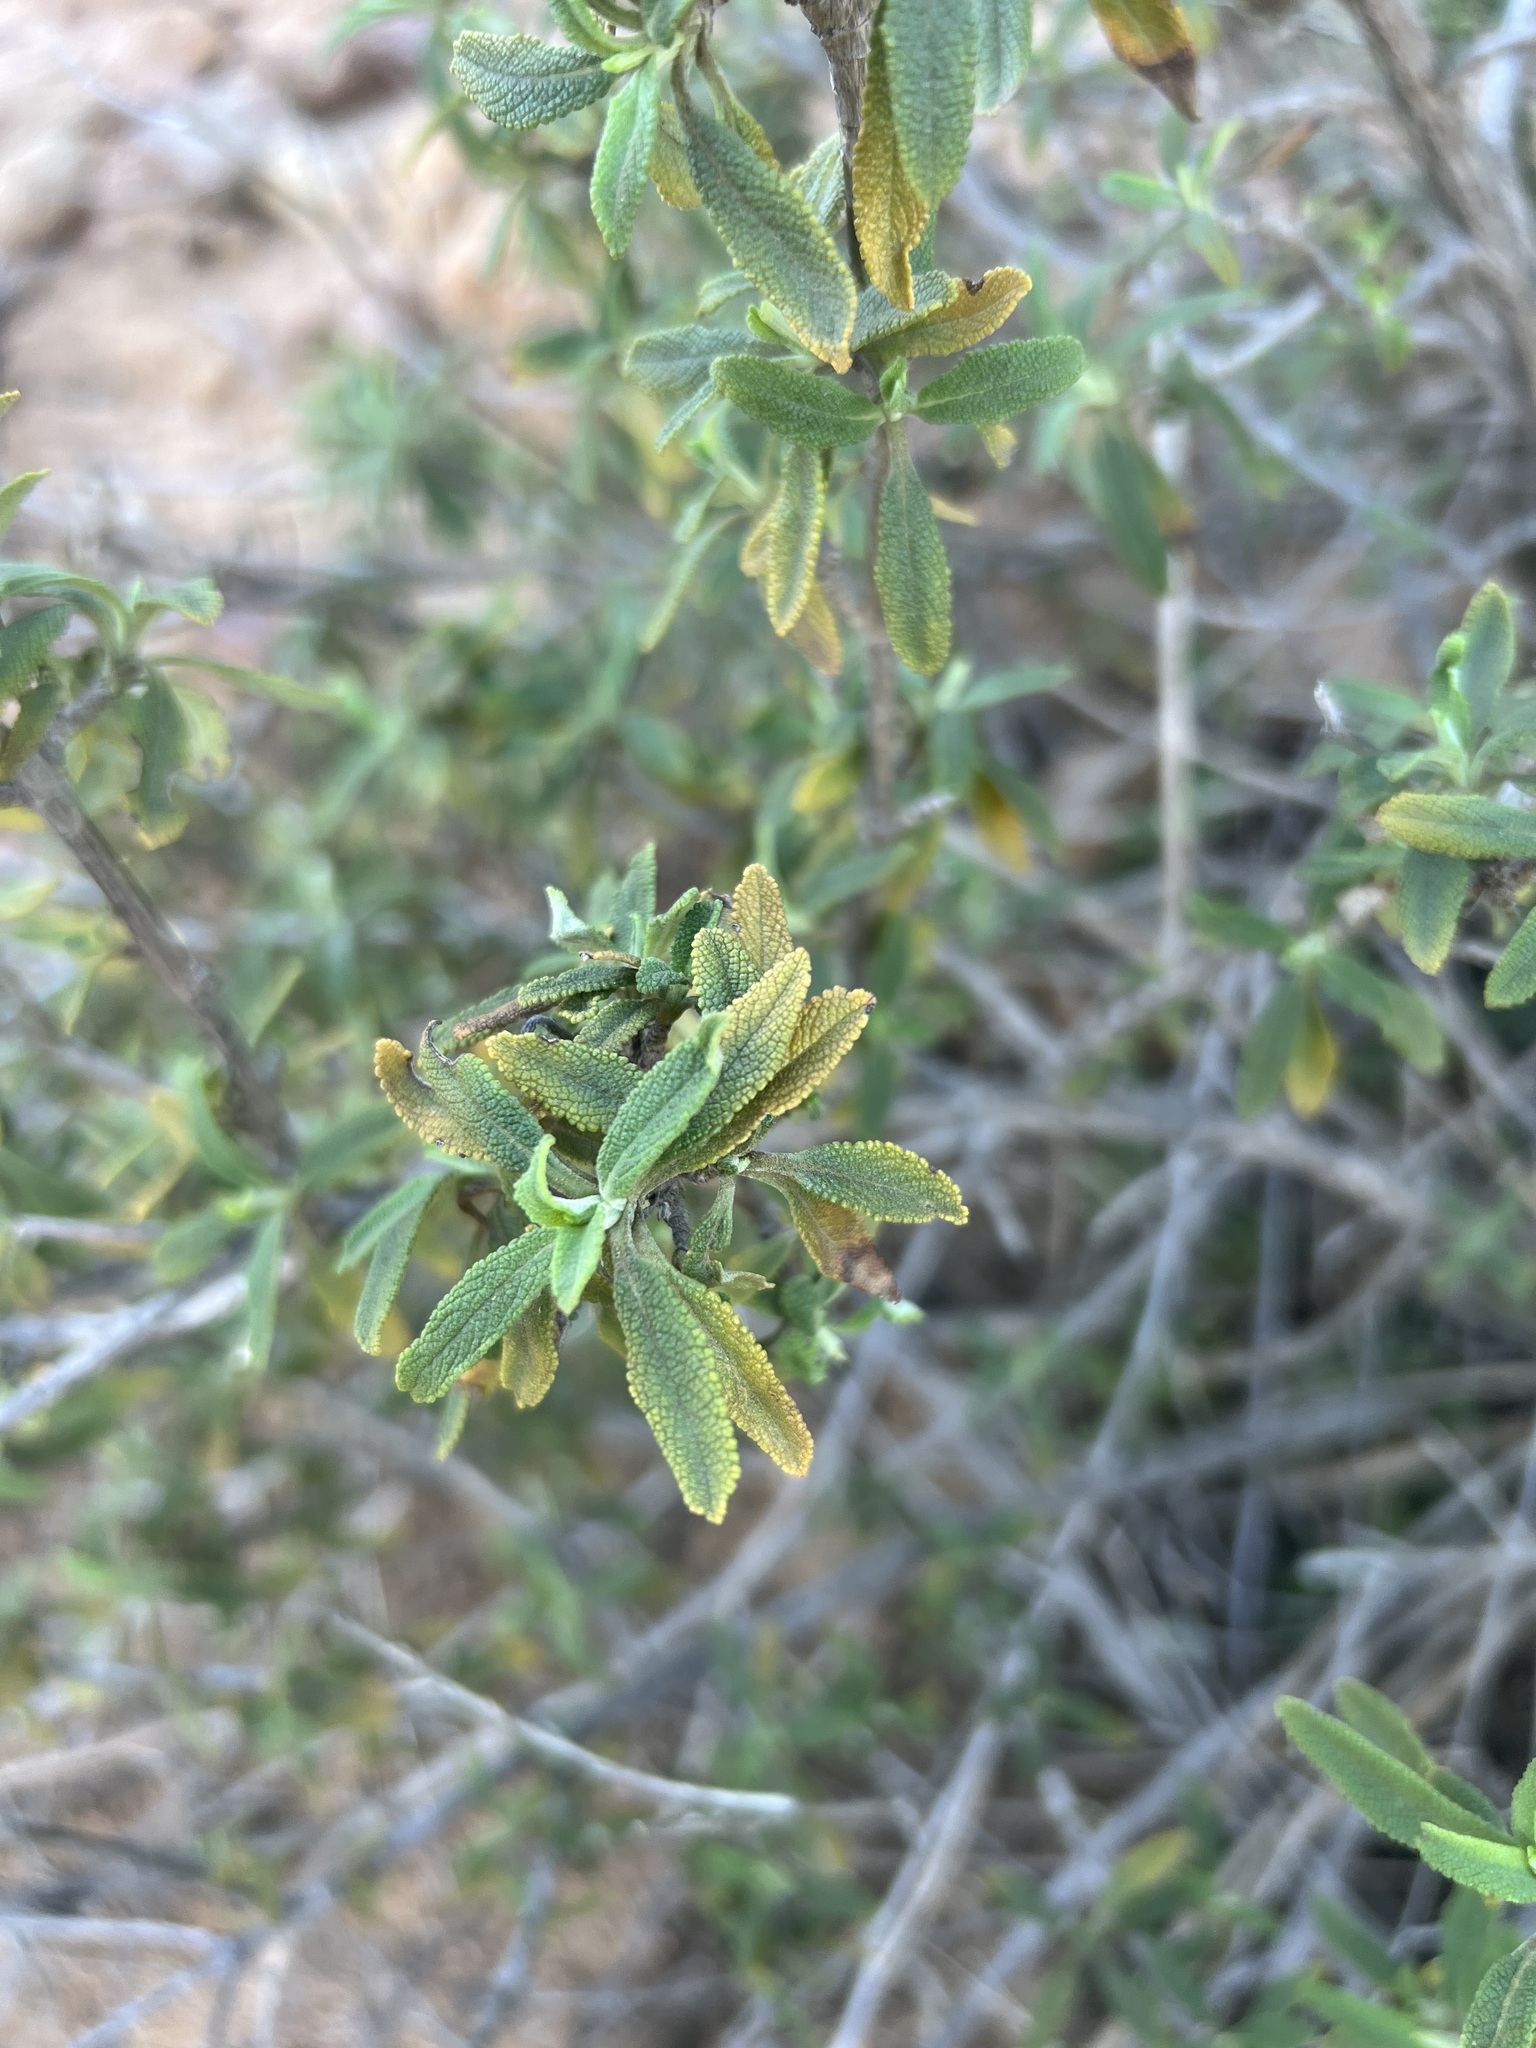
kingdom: Plantae
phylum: Tracheophyta
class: Magnoliopsida
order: Lamiales
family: Lamiaceae
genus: Salvia
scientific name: Salvia mellifera
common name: Black sage
